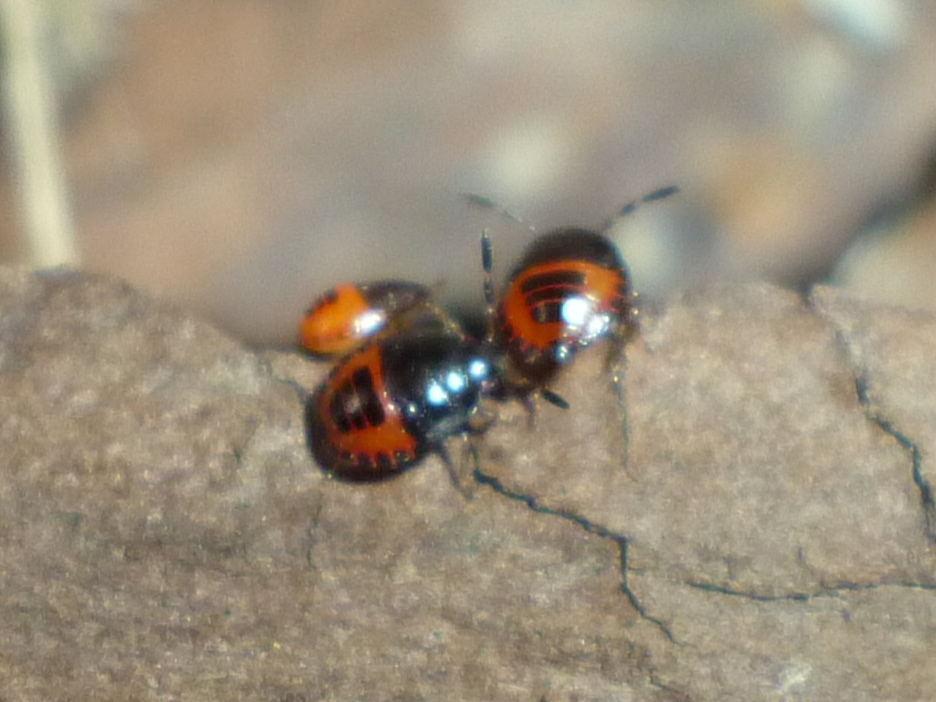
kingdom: Animalia
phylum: Arthropoda
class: Insecta
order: Hemiptera
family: Cydnidae
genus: Sehirus
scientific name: Sehirus cinctus
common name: White-margined burrower bug
